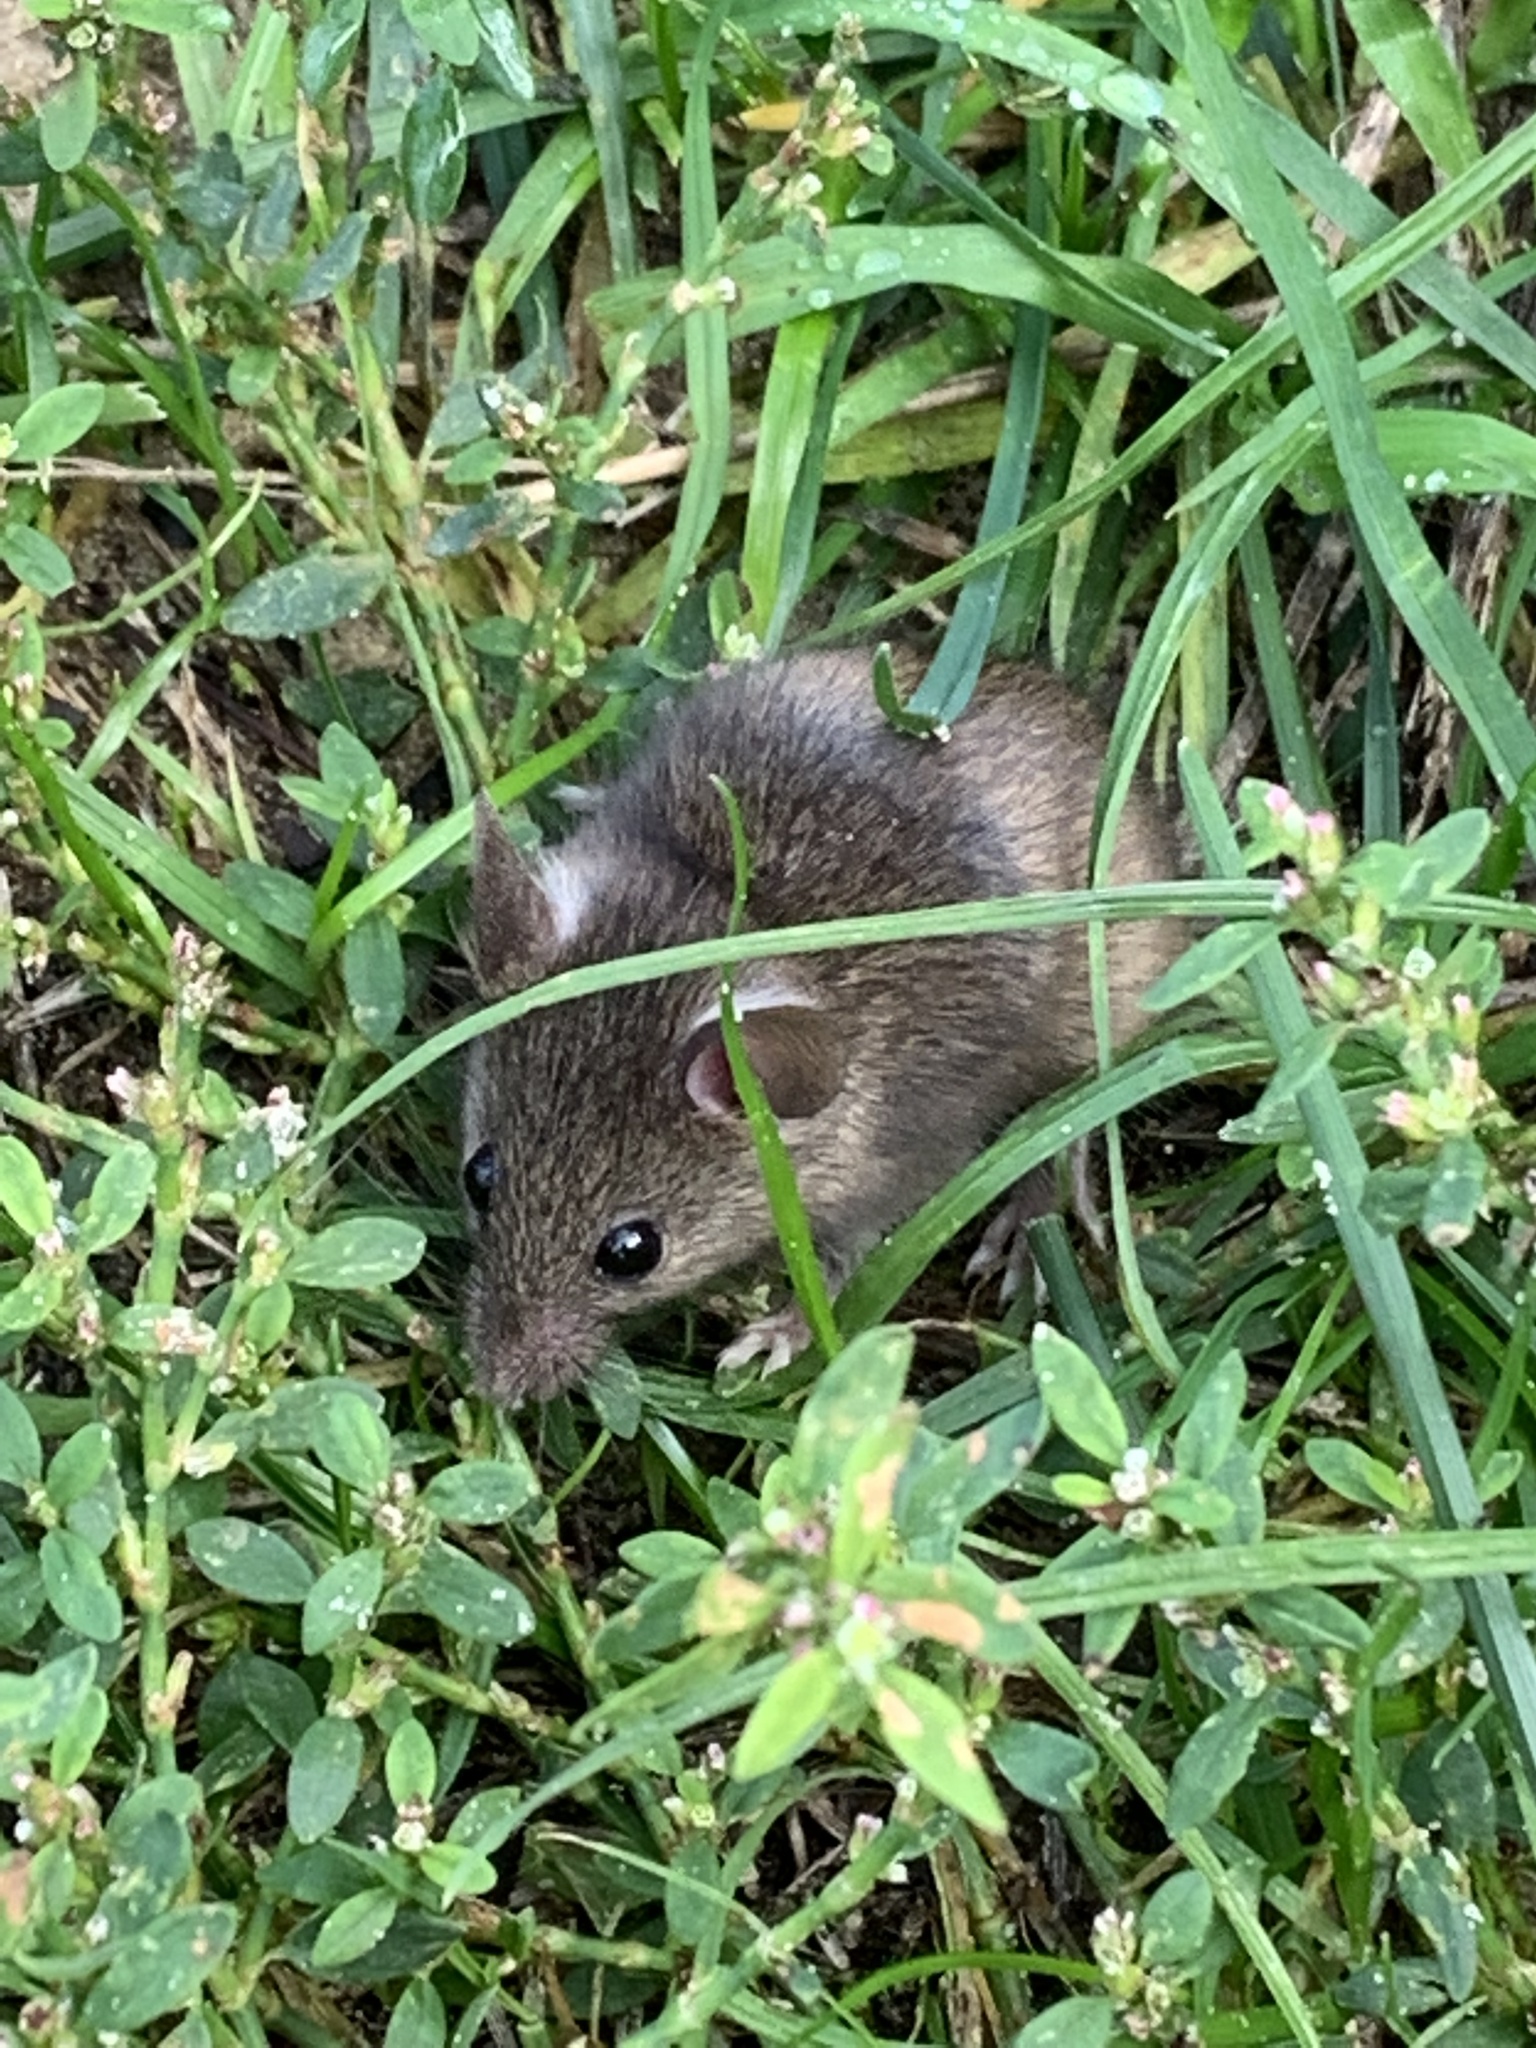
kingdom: Animalia
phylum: Chordata
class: Mammalia
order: Rodentia
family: Muridae
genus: Apodemus
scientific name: Apodemus sylvaticus
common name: Wood mouse
